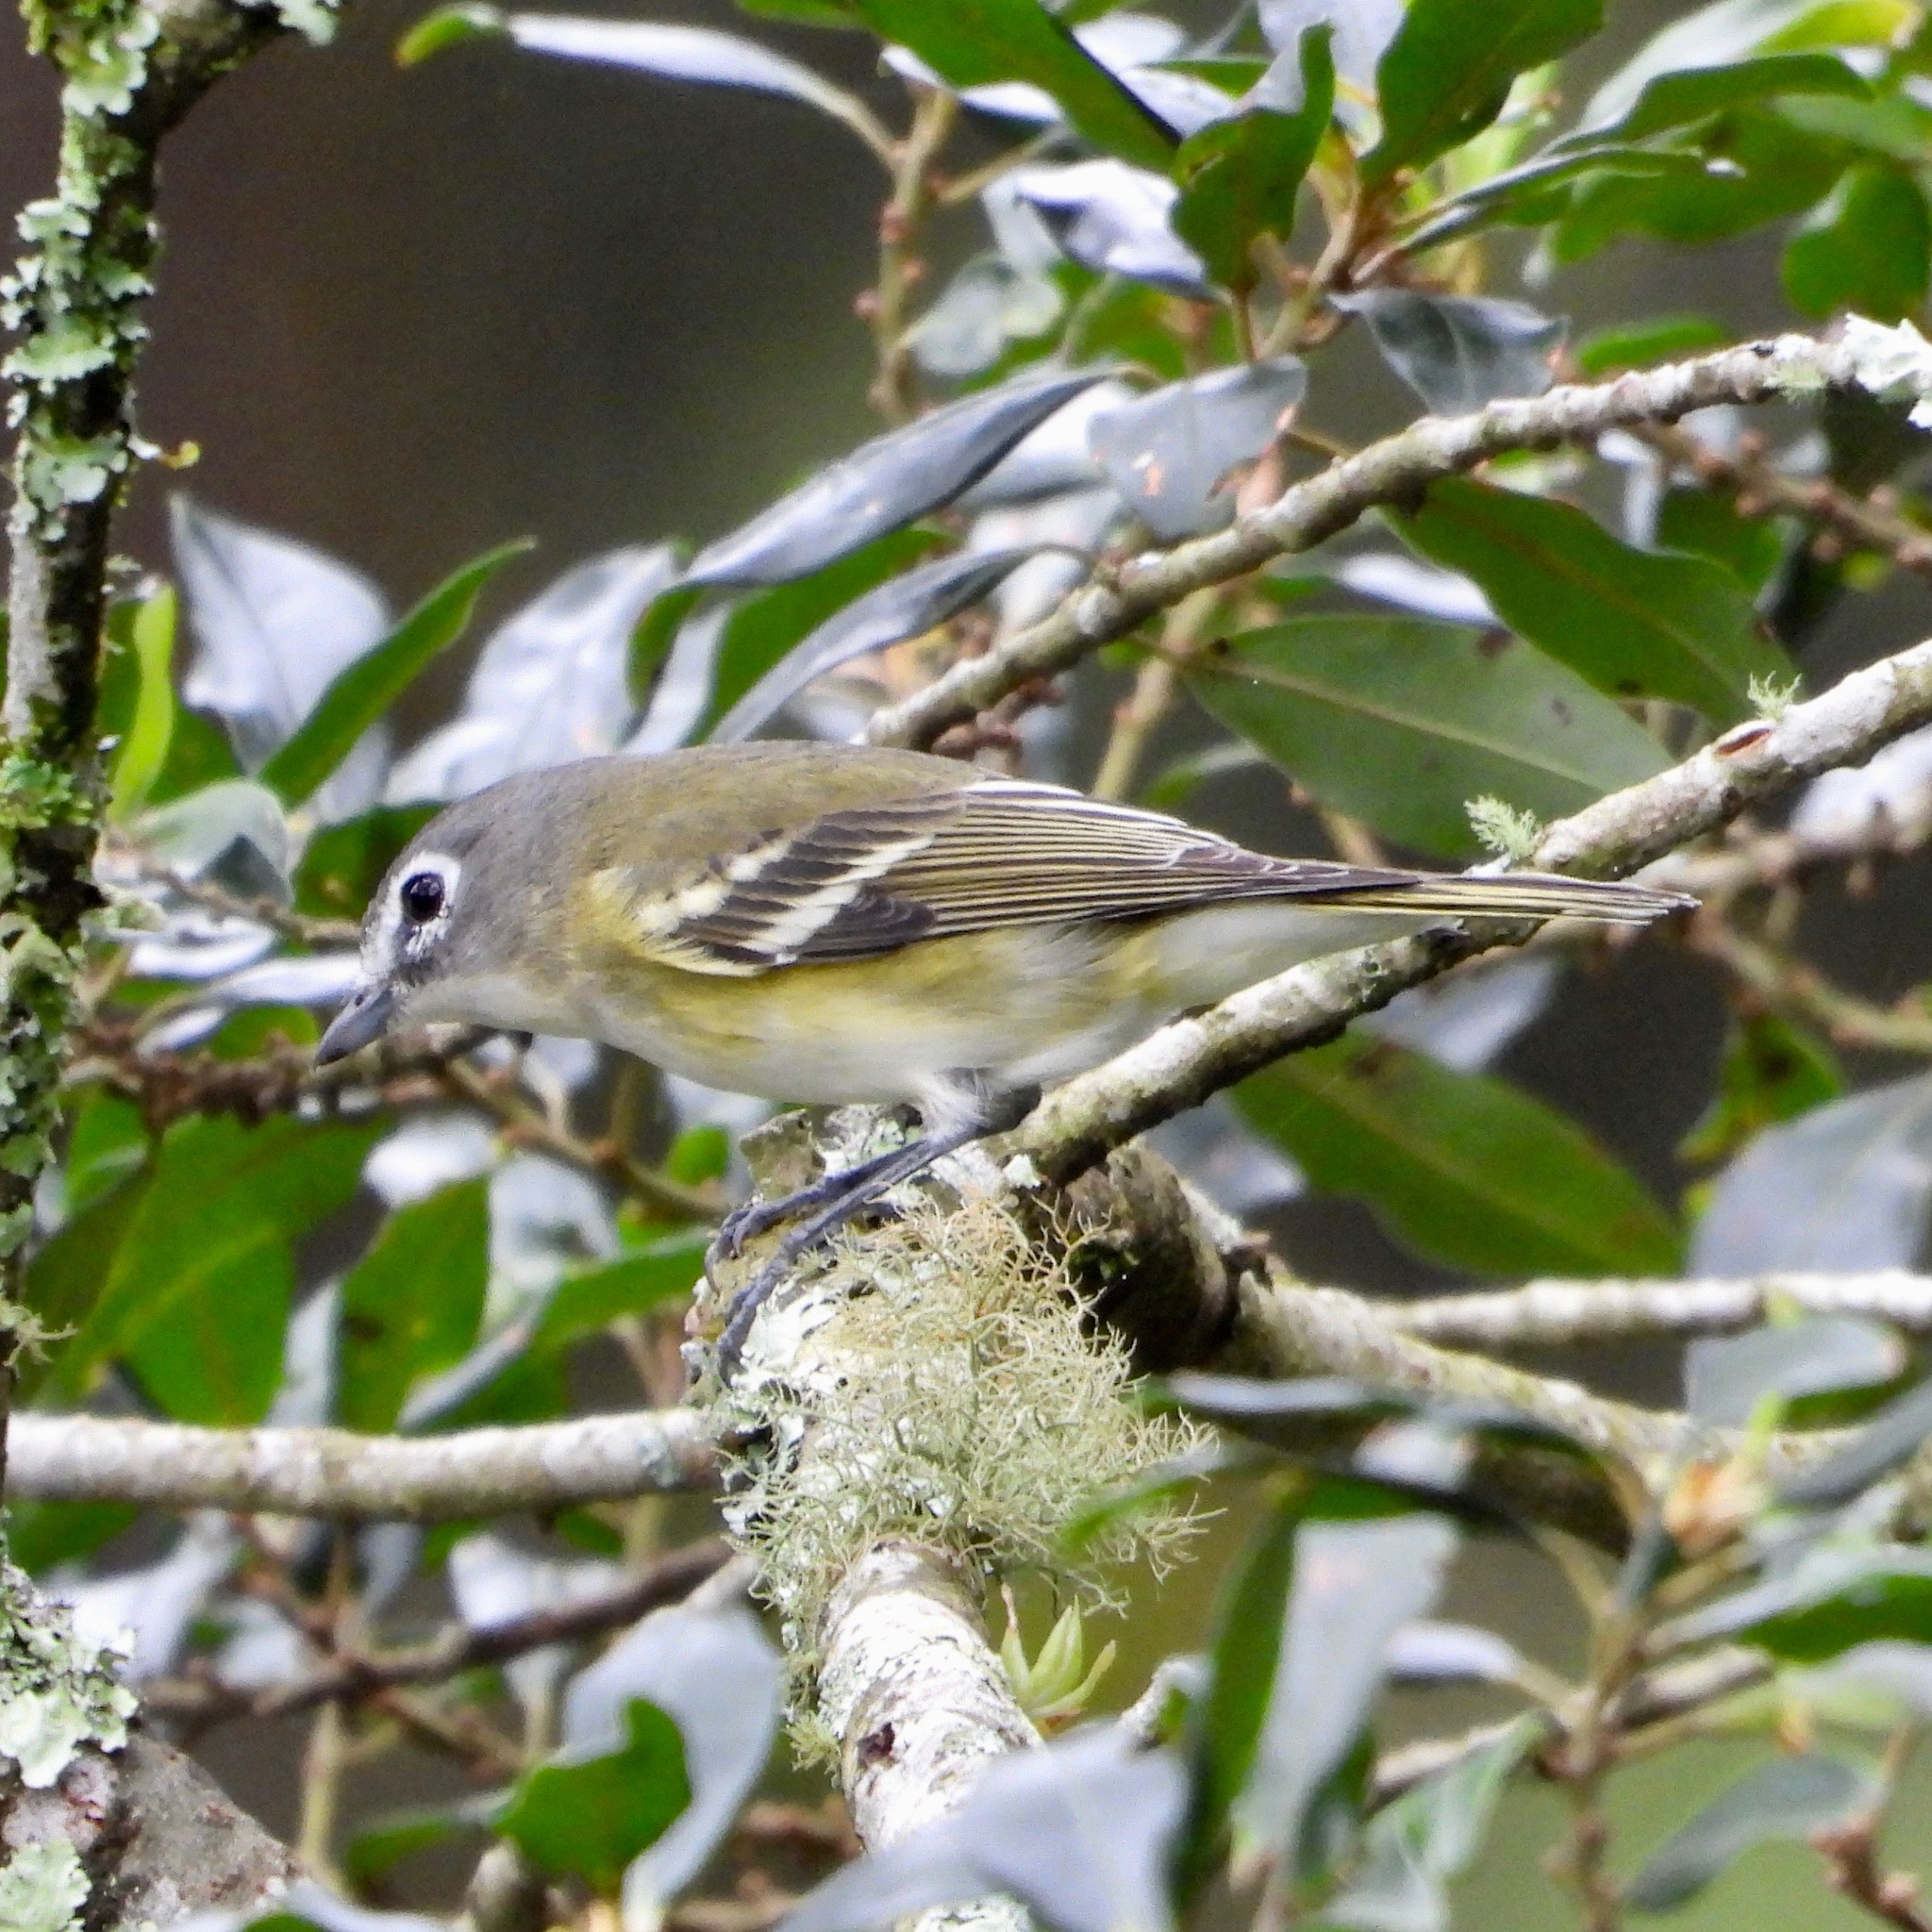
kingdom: Animalia
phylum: Chordata
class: Aves
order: Passeriformes
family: Vireonidae
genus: Vireo
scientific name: Vireo solitarius
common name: Blue-headed vireo
